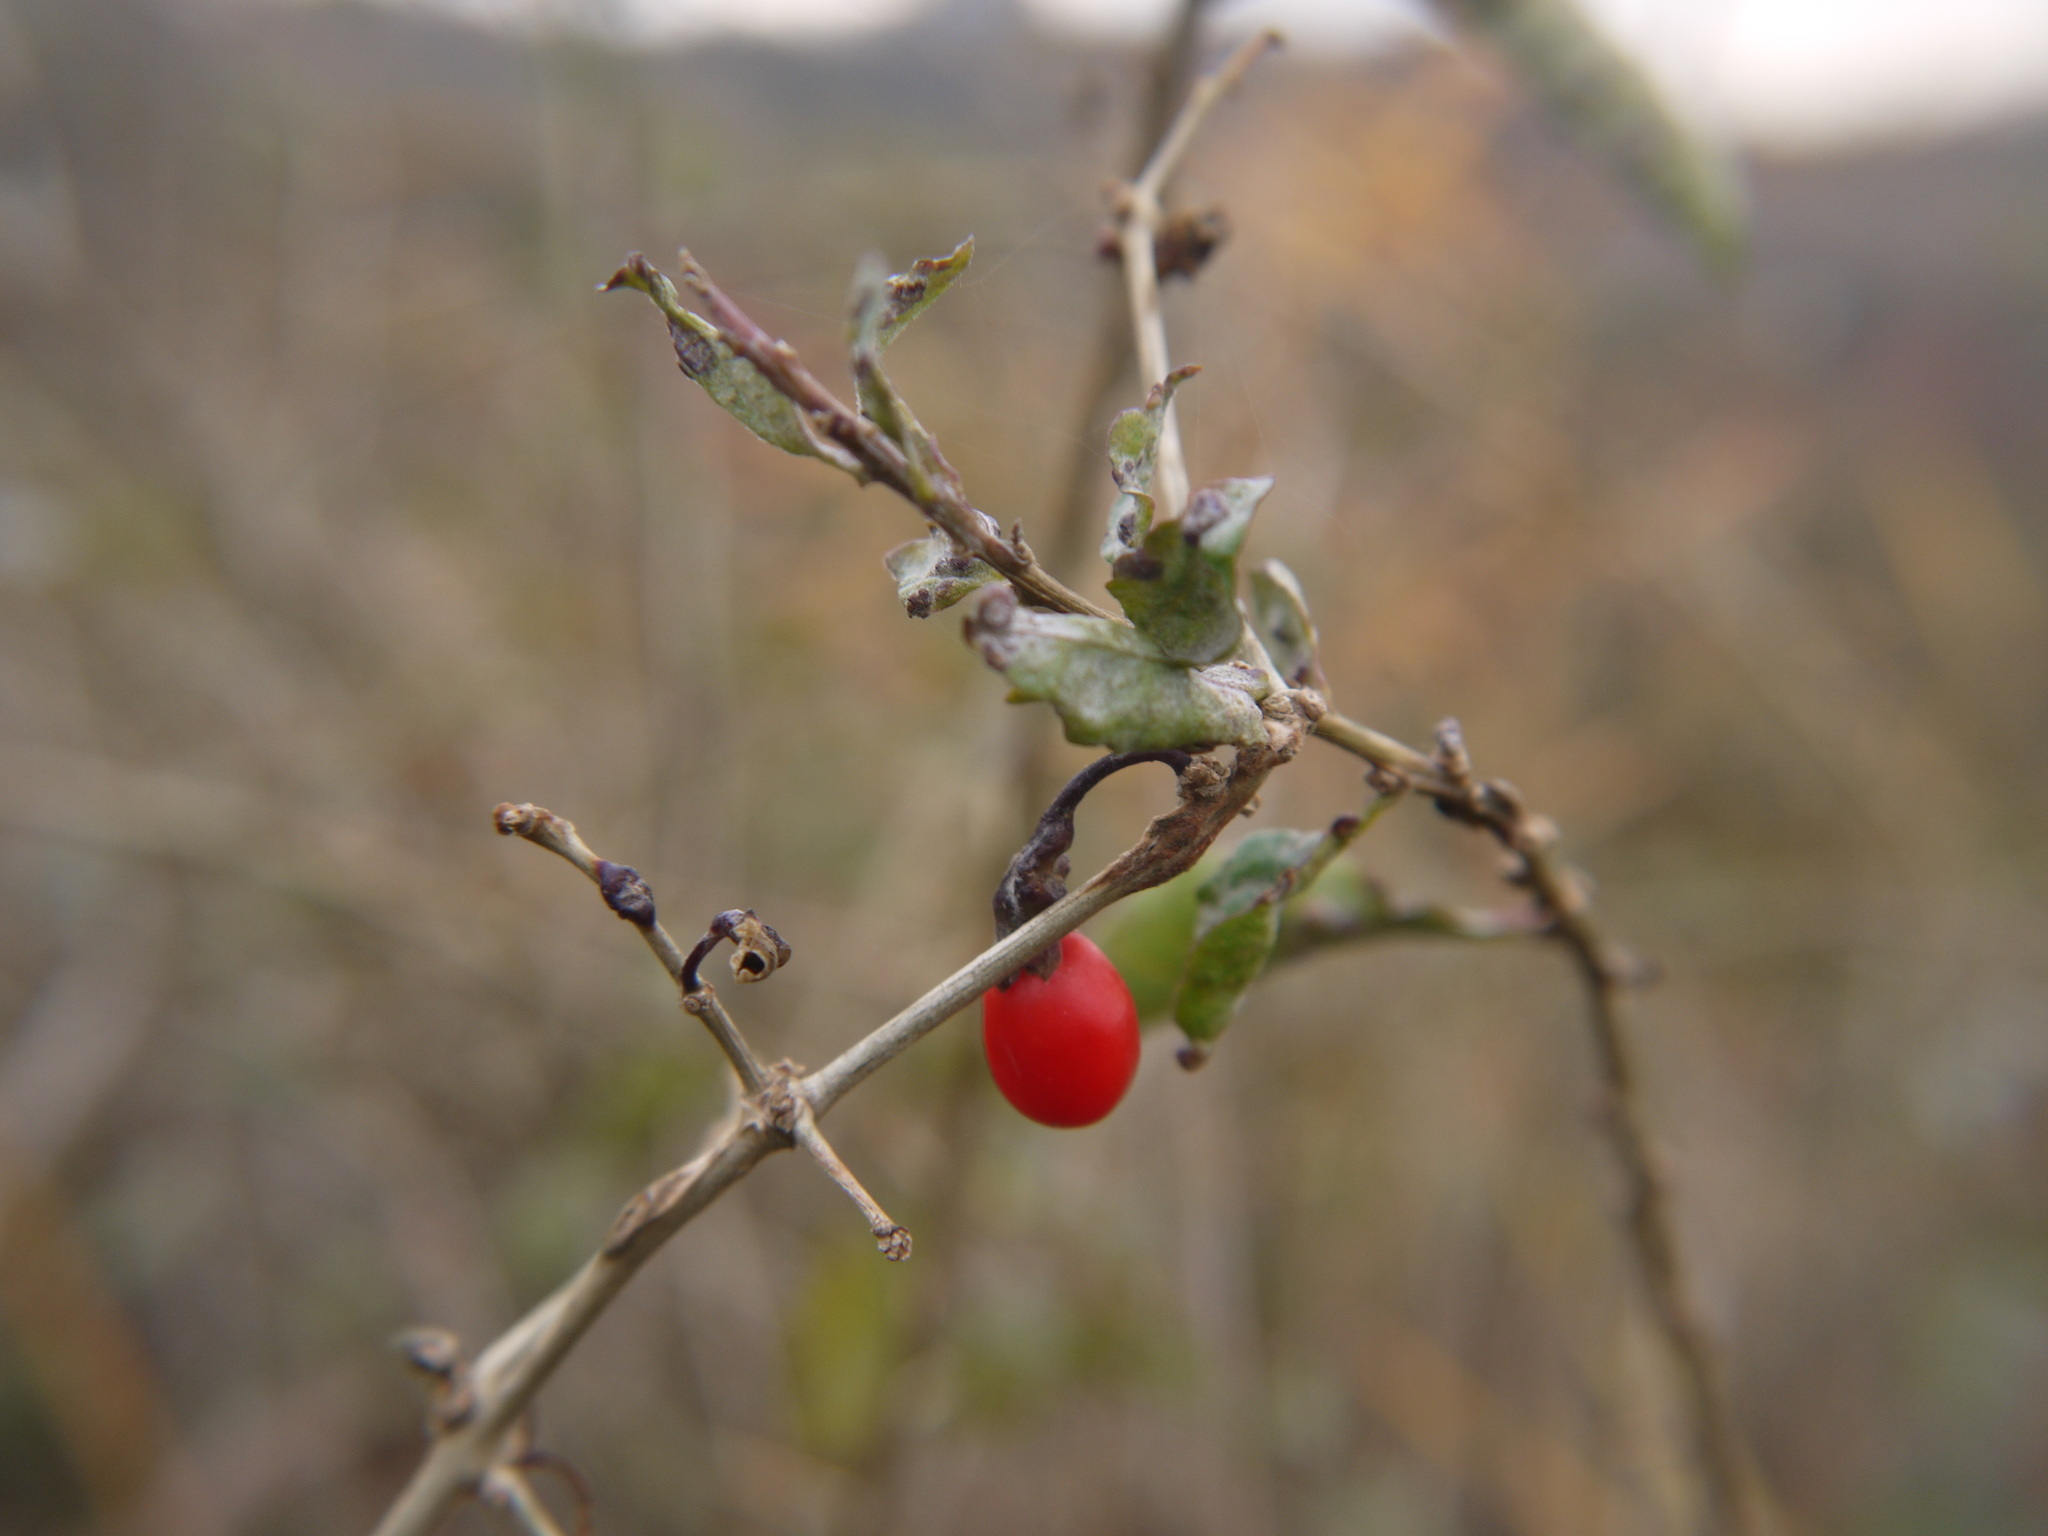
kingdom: Plantae
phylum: Tracheophyta
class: Magnoliopsida
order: Solanales
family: Solanaceae
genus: Lycium
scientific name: Lycium barbarum
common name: Duke of argyll's teaplant
